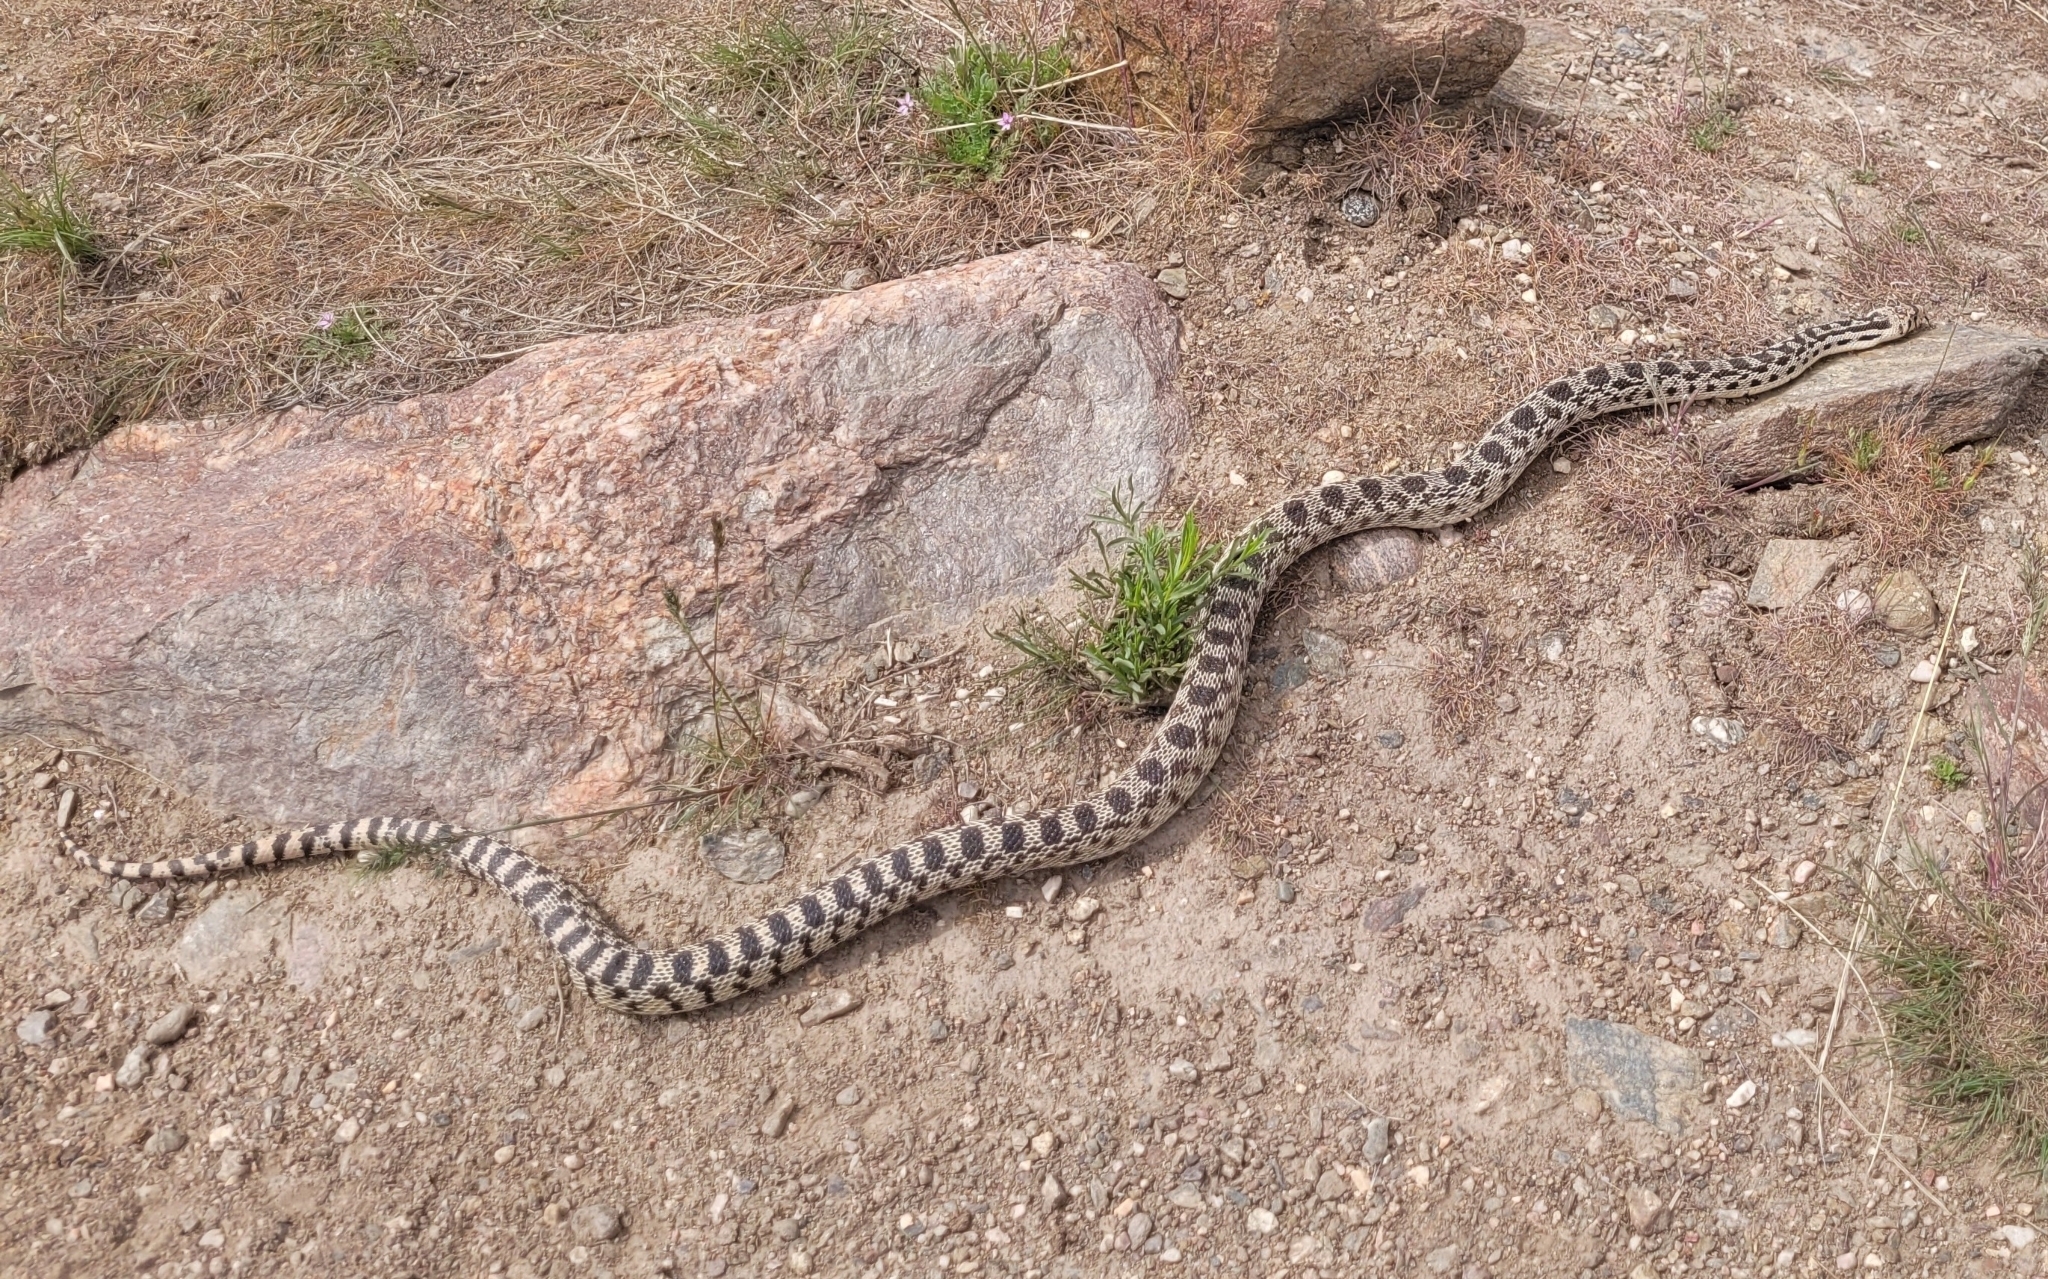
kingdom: Animalia
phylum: Chordata
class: Squamata
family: Colubridae
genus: Pituophis
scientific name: Pituophis catenifer
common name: Gopher snake
